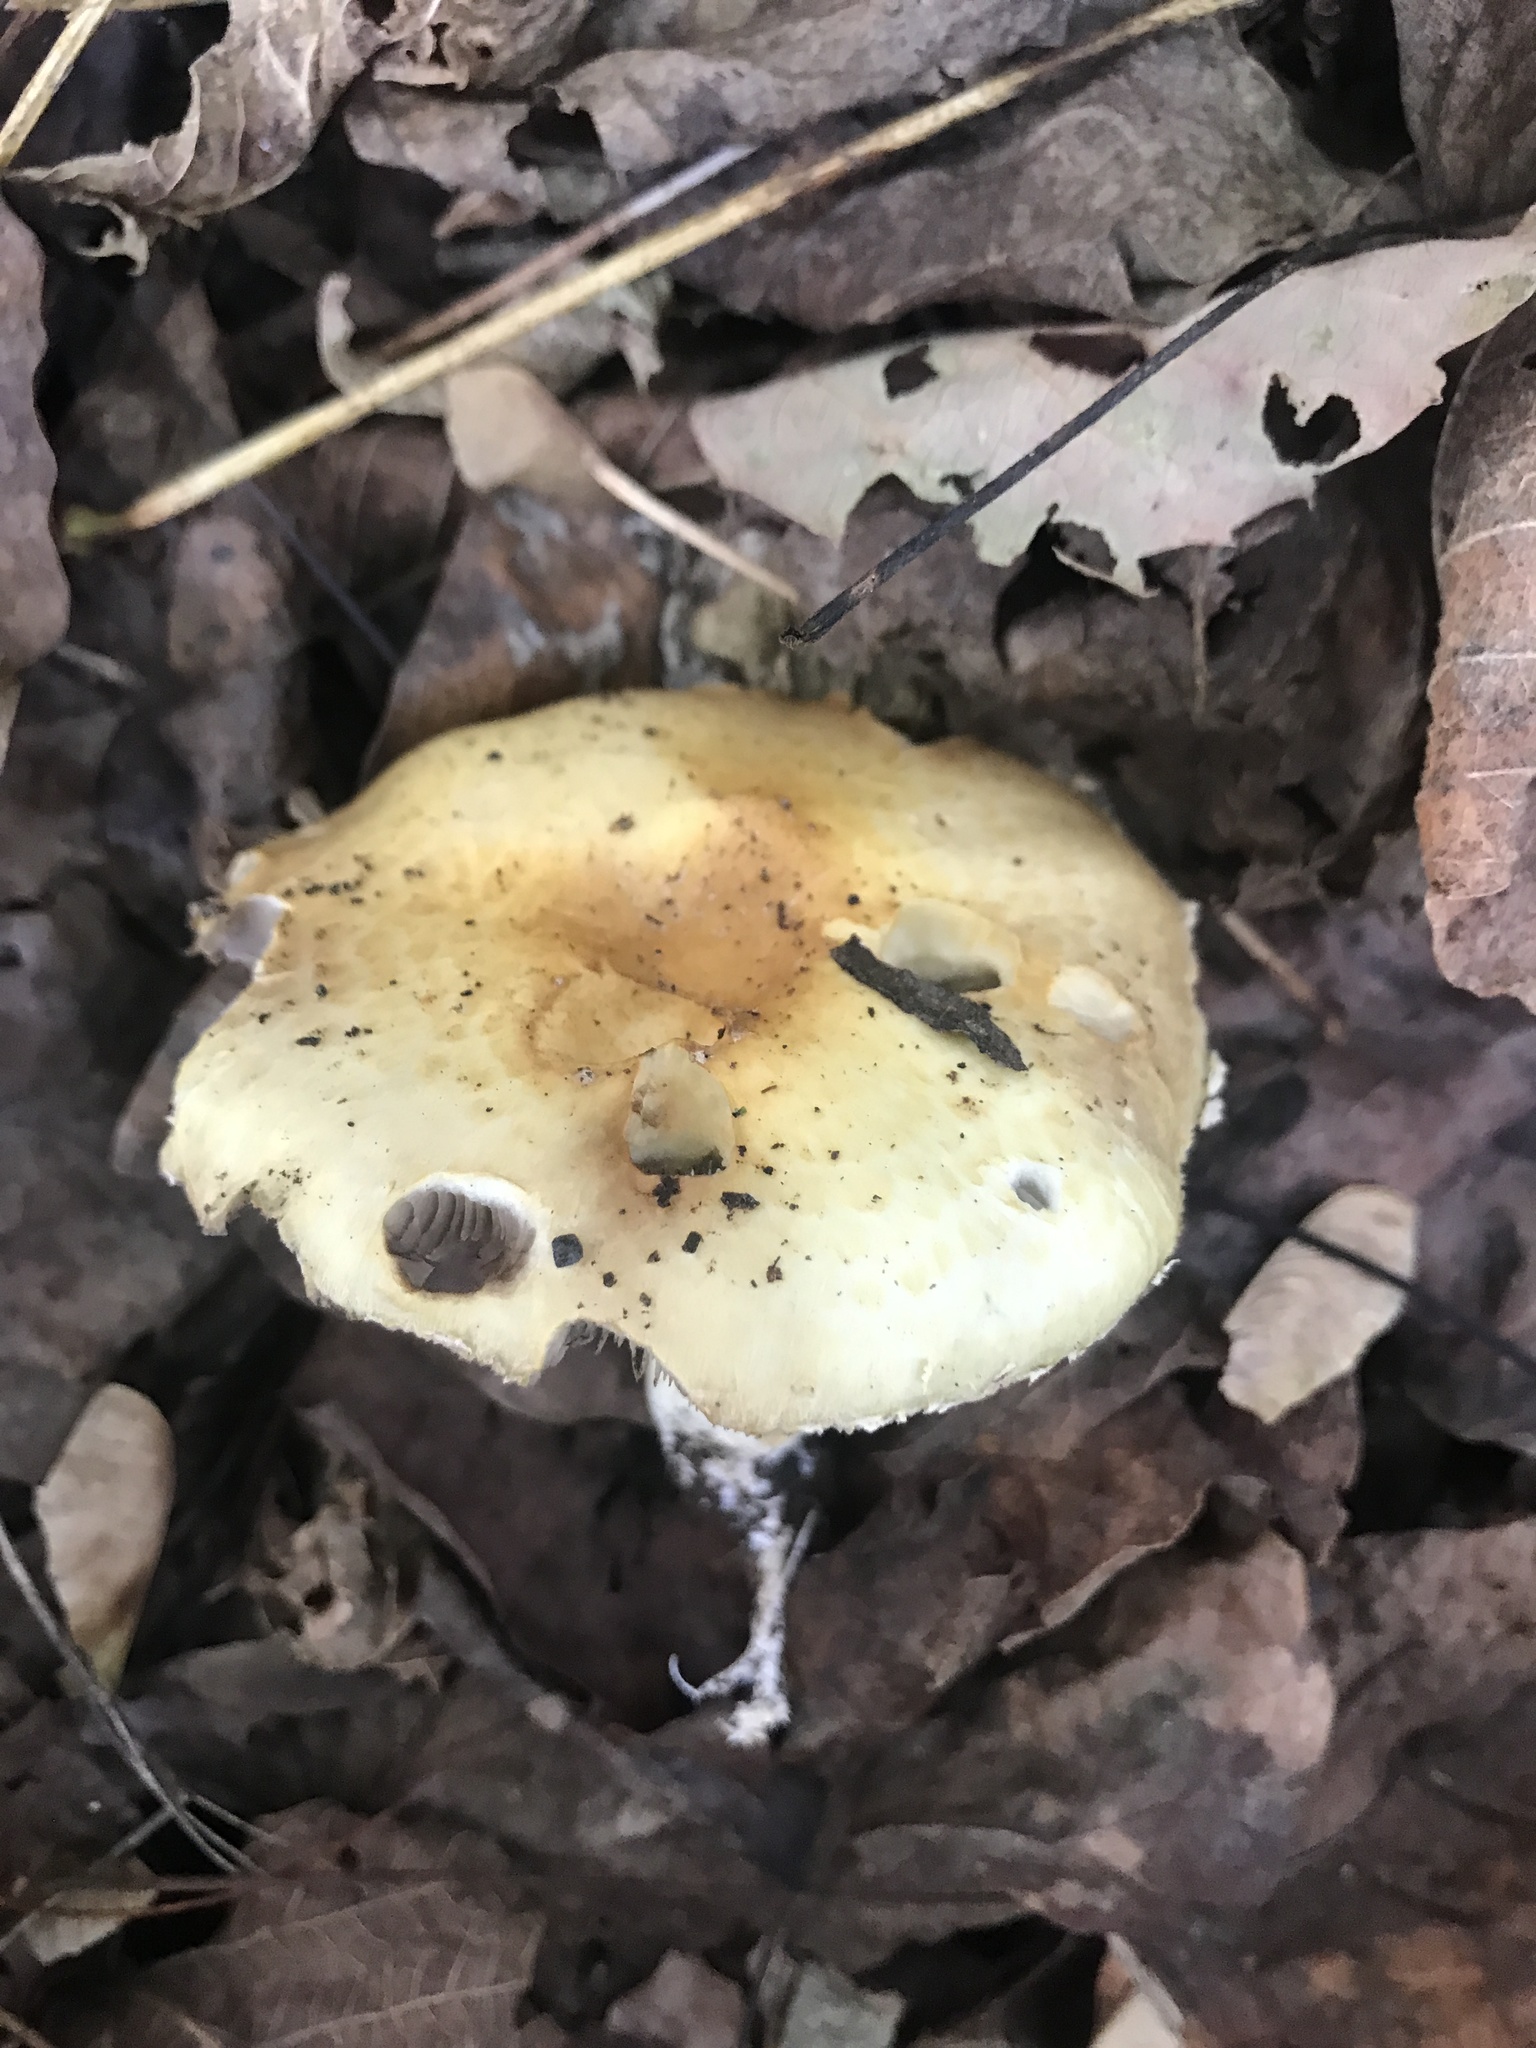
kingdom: Fungi
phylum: Basidiomycota
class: Agaricomycetes
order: Agaricales
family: Strophariaceae
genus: Stropharia
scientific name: Stropharia hardii
